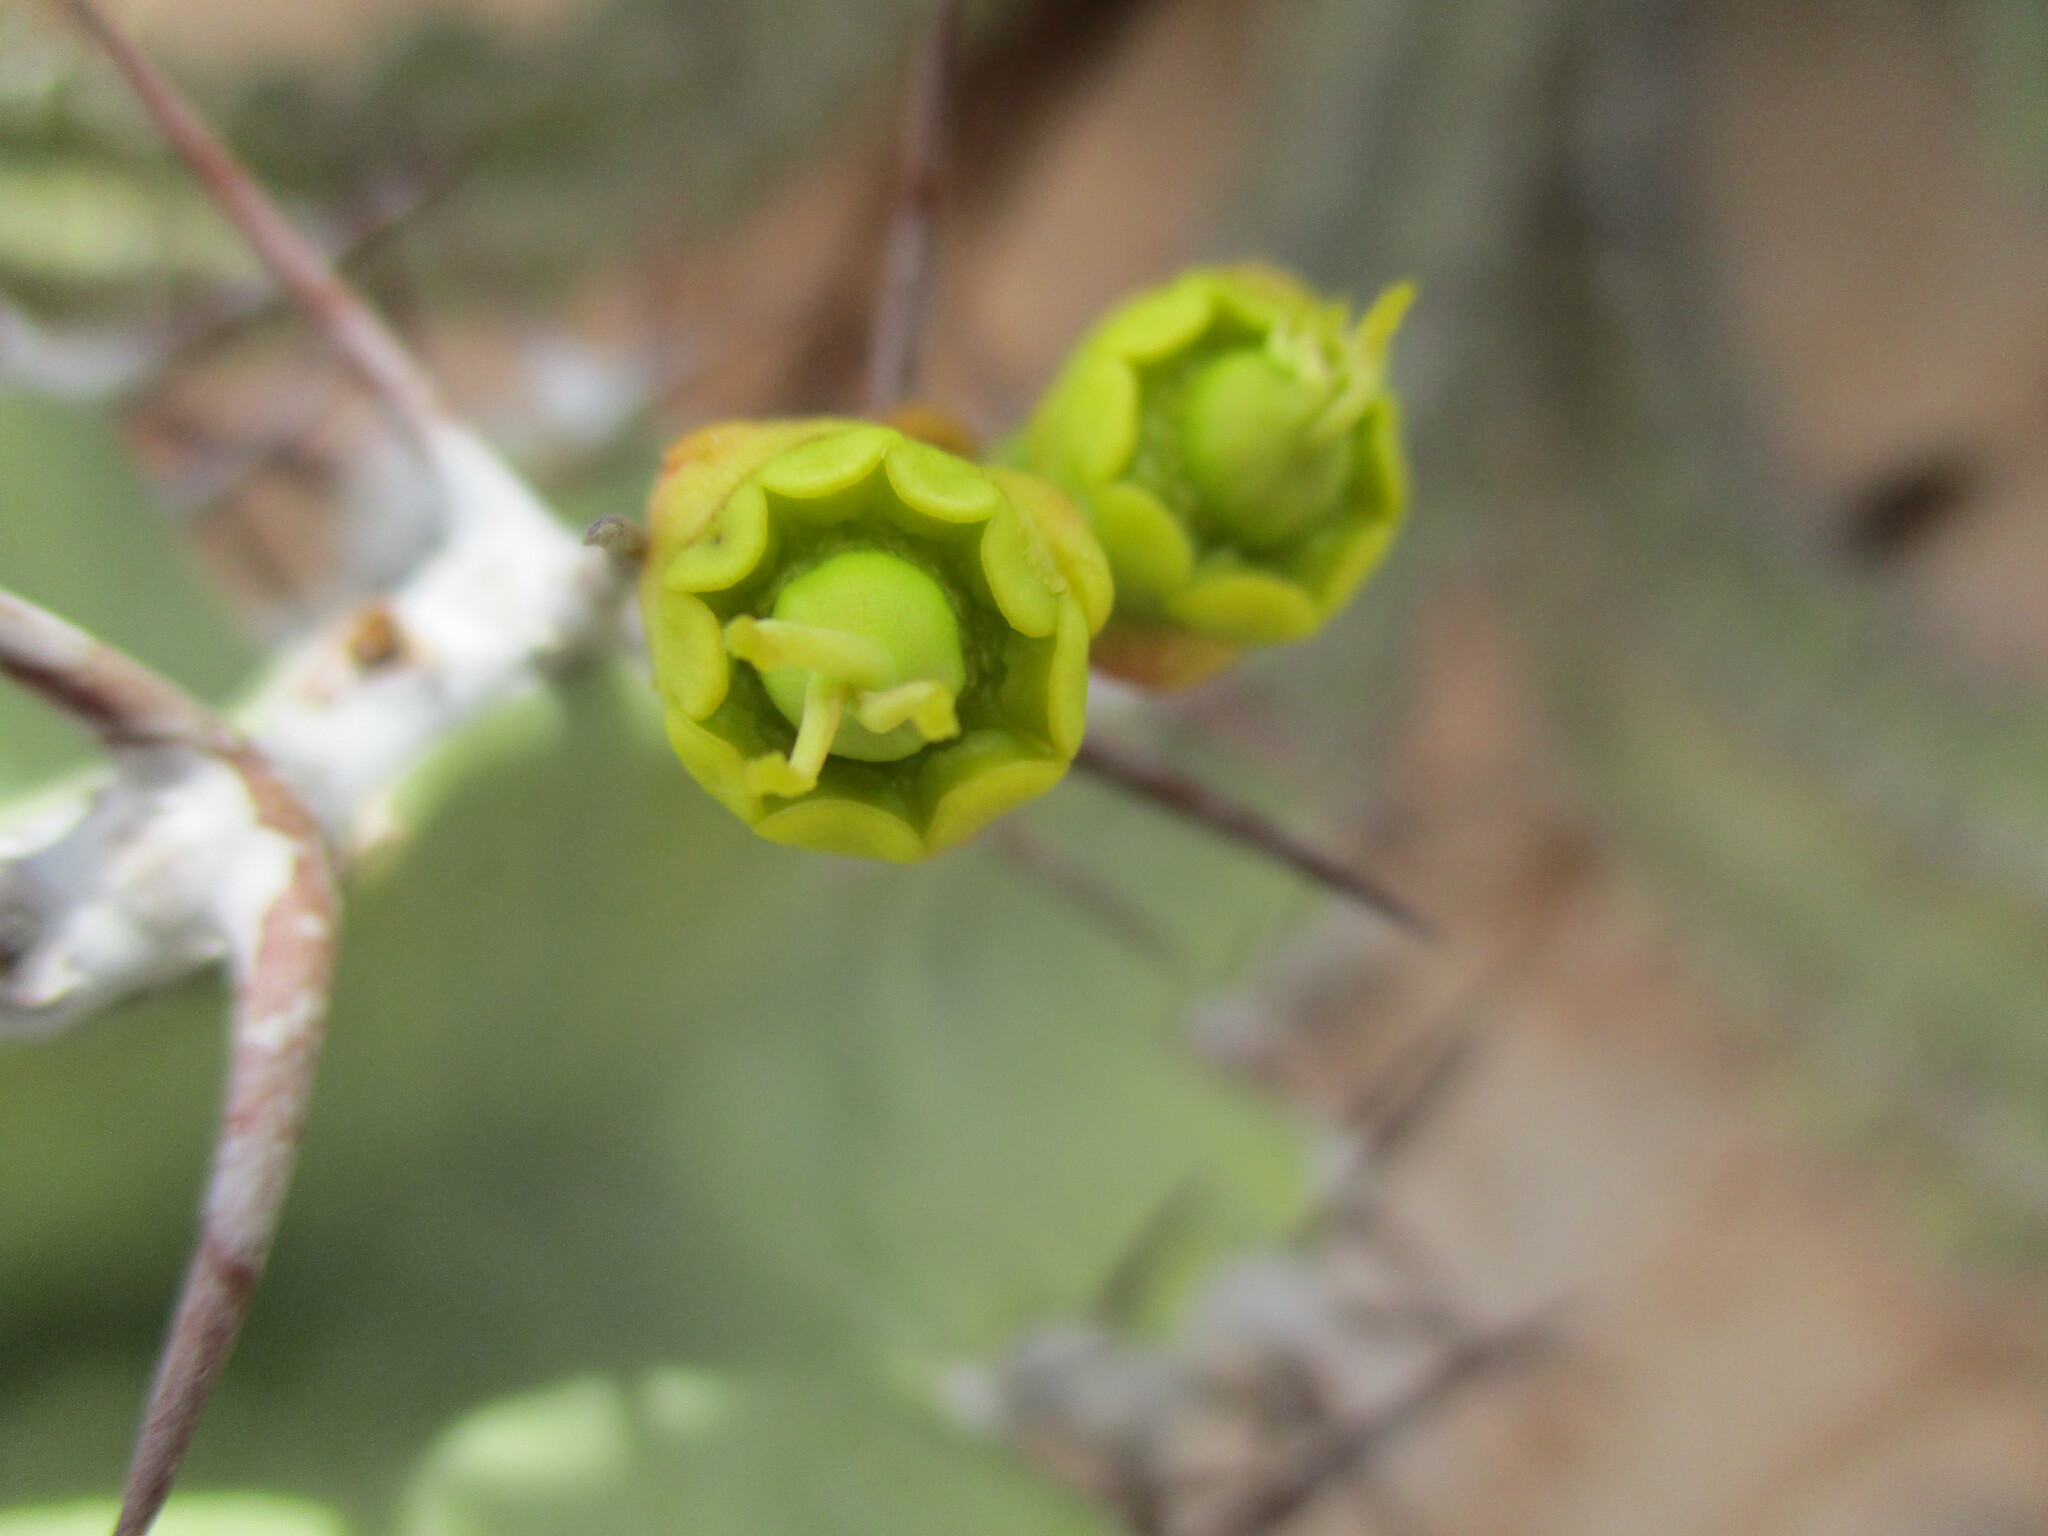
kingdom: Plantae
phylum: Tracheophyta
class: Magnoliopsida
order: Malpighiales
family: Euphorbiaceae
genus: Euphorbia
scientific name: Euphorbia virosa
